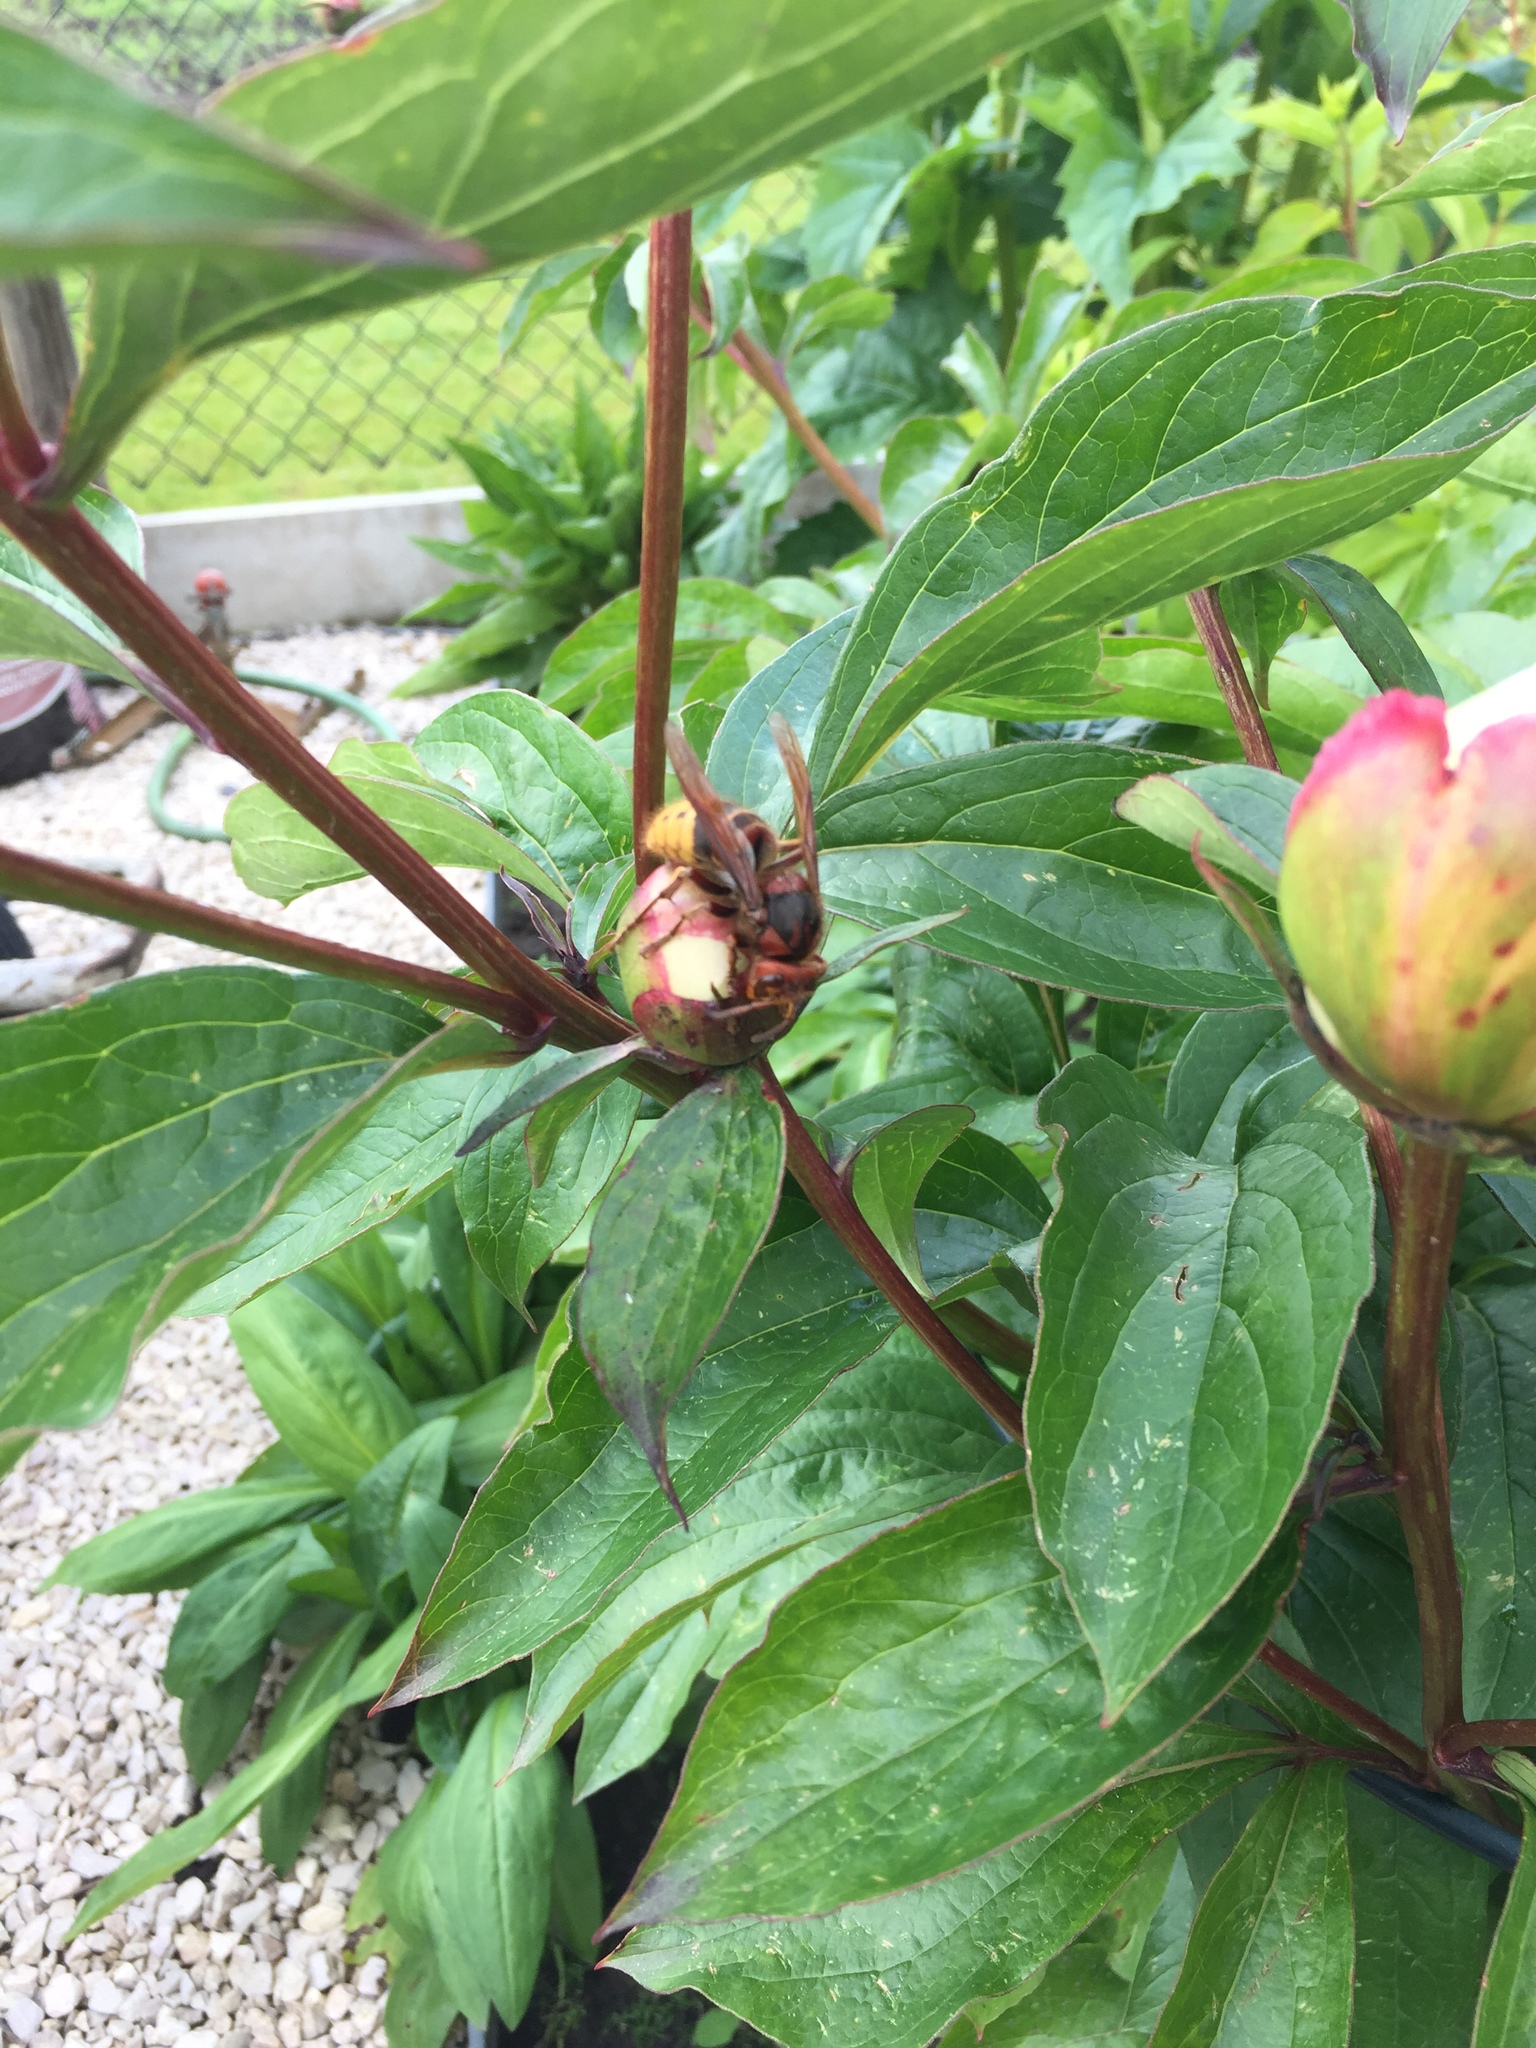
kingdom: Animalia
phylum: Arthropoda
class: Insecta
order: Hymenoptera
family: Vespidae
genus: Vespa
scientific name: Vespa crabro
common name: Hornet
